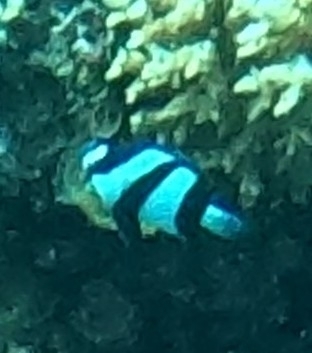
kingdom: Animalia
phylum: Chordata
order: Perciformes
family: Pomacentridae
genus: Dascyllus
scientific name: Dascyllus aruanus
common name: Humbug dascyllus
